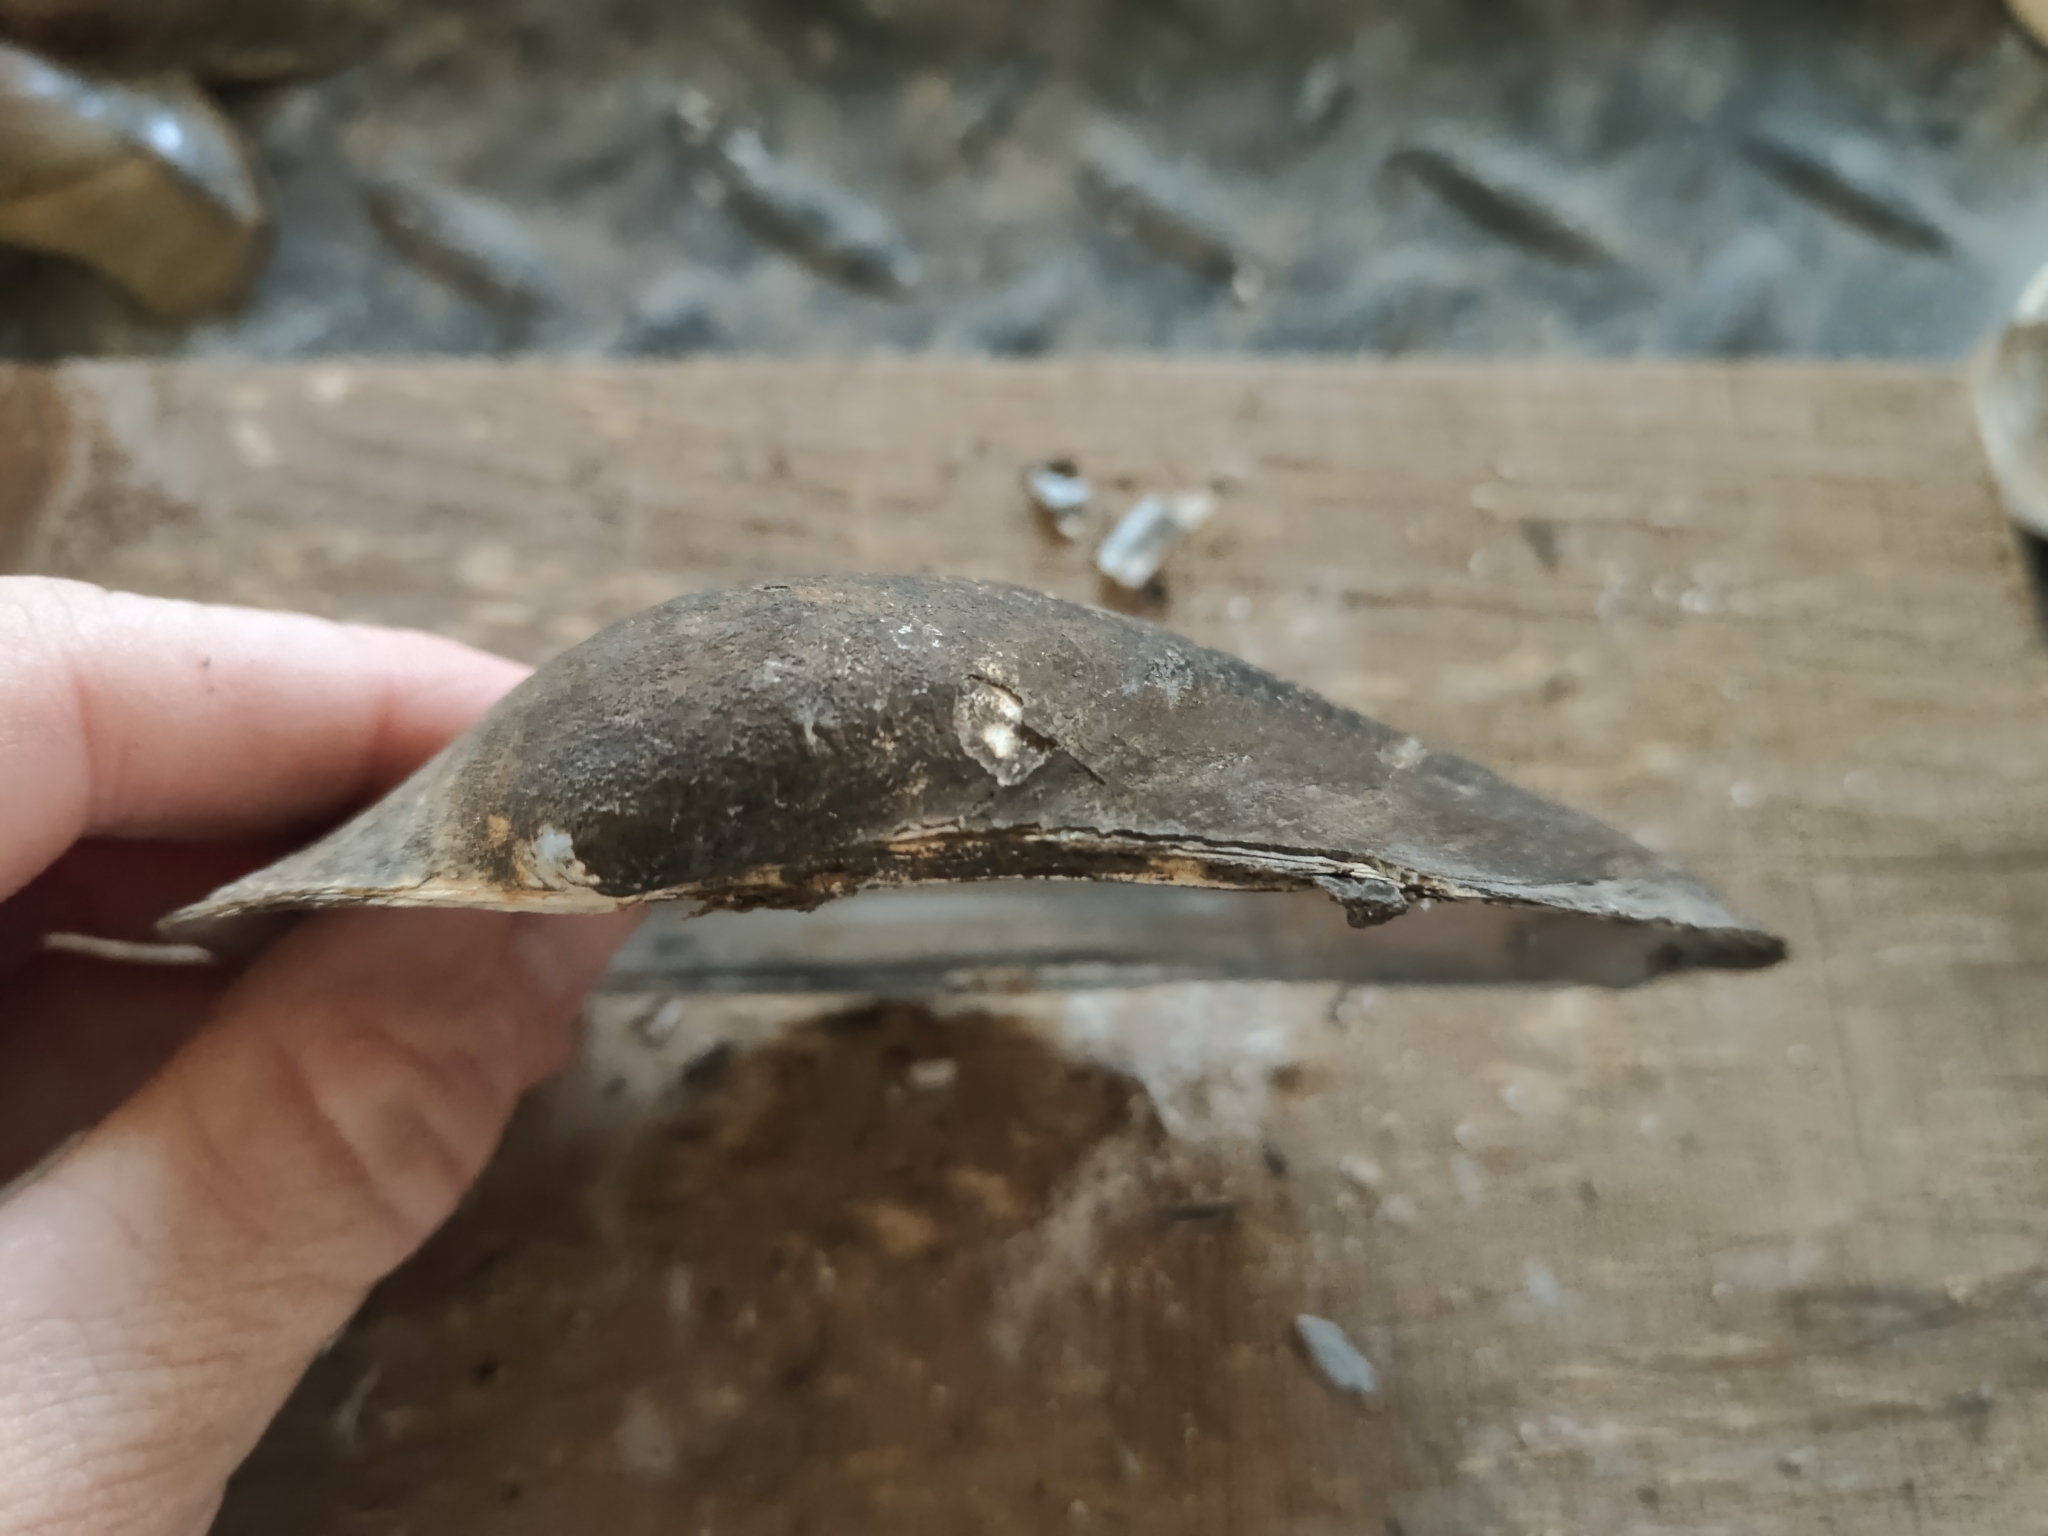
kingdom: Animalia
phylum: Mollusca
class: Bivalvia
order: Unionida
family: Unionidae
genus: Pyganodon
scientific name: Pyganodon grandis
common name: Giant floater
